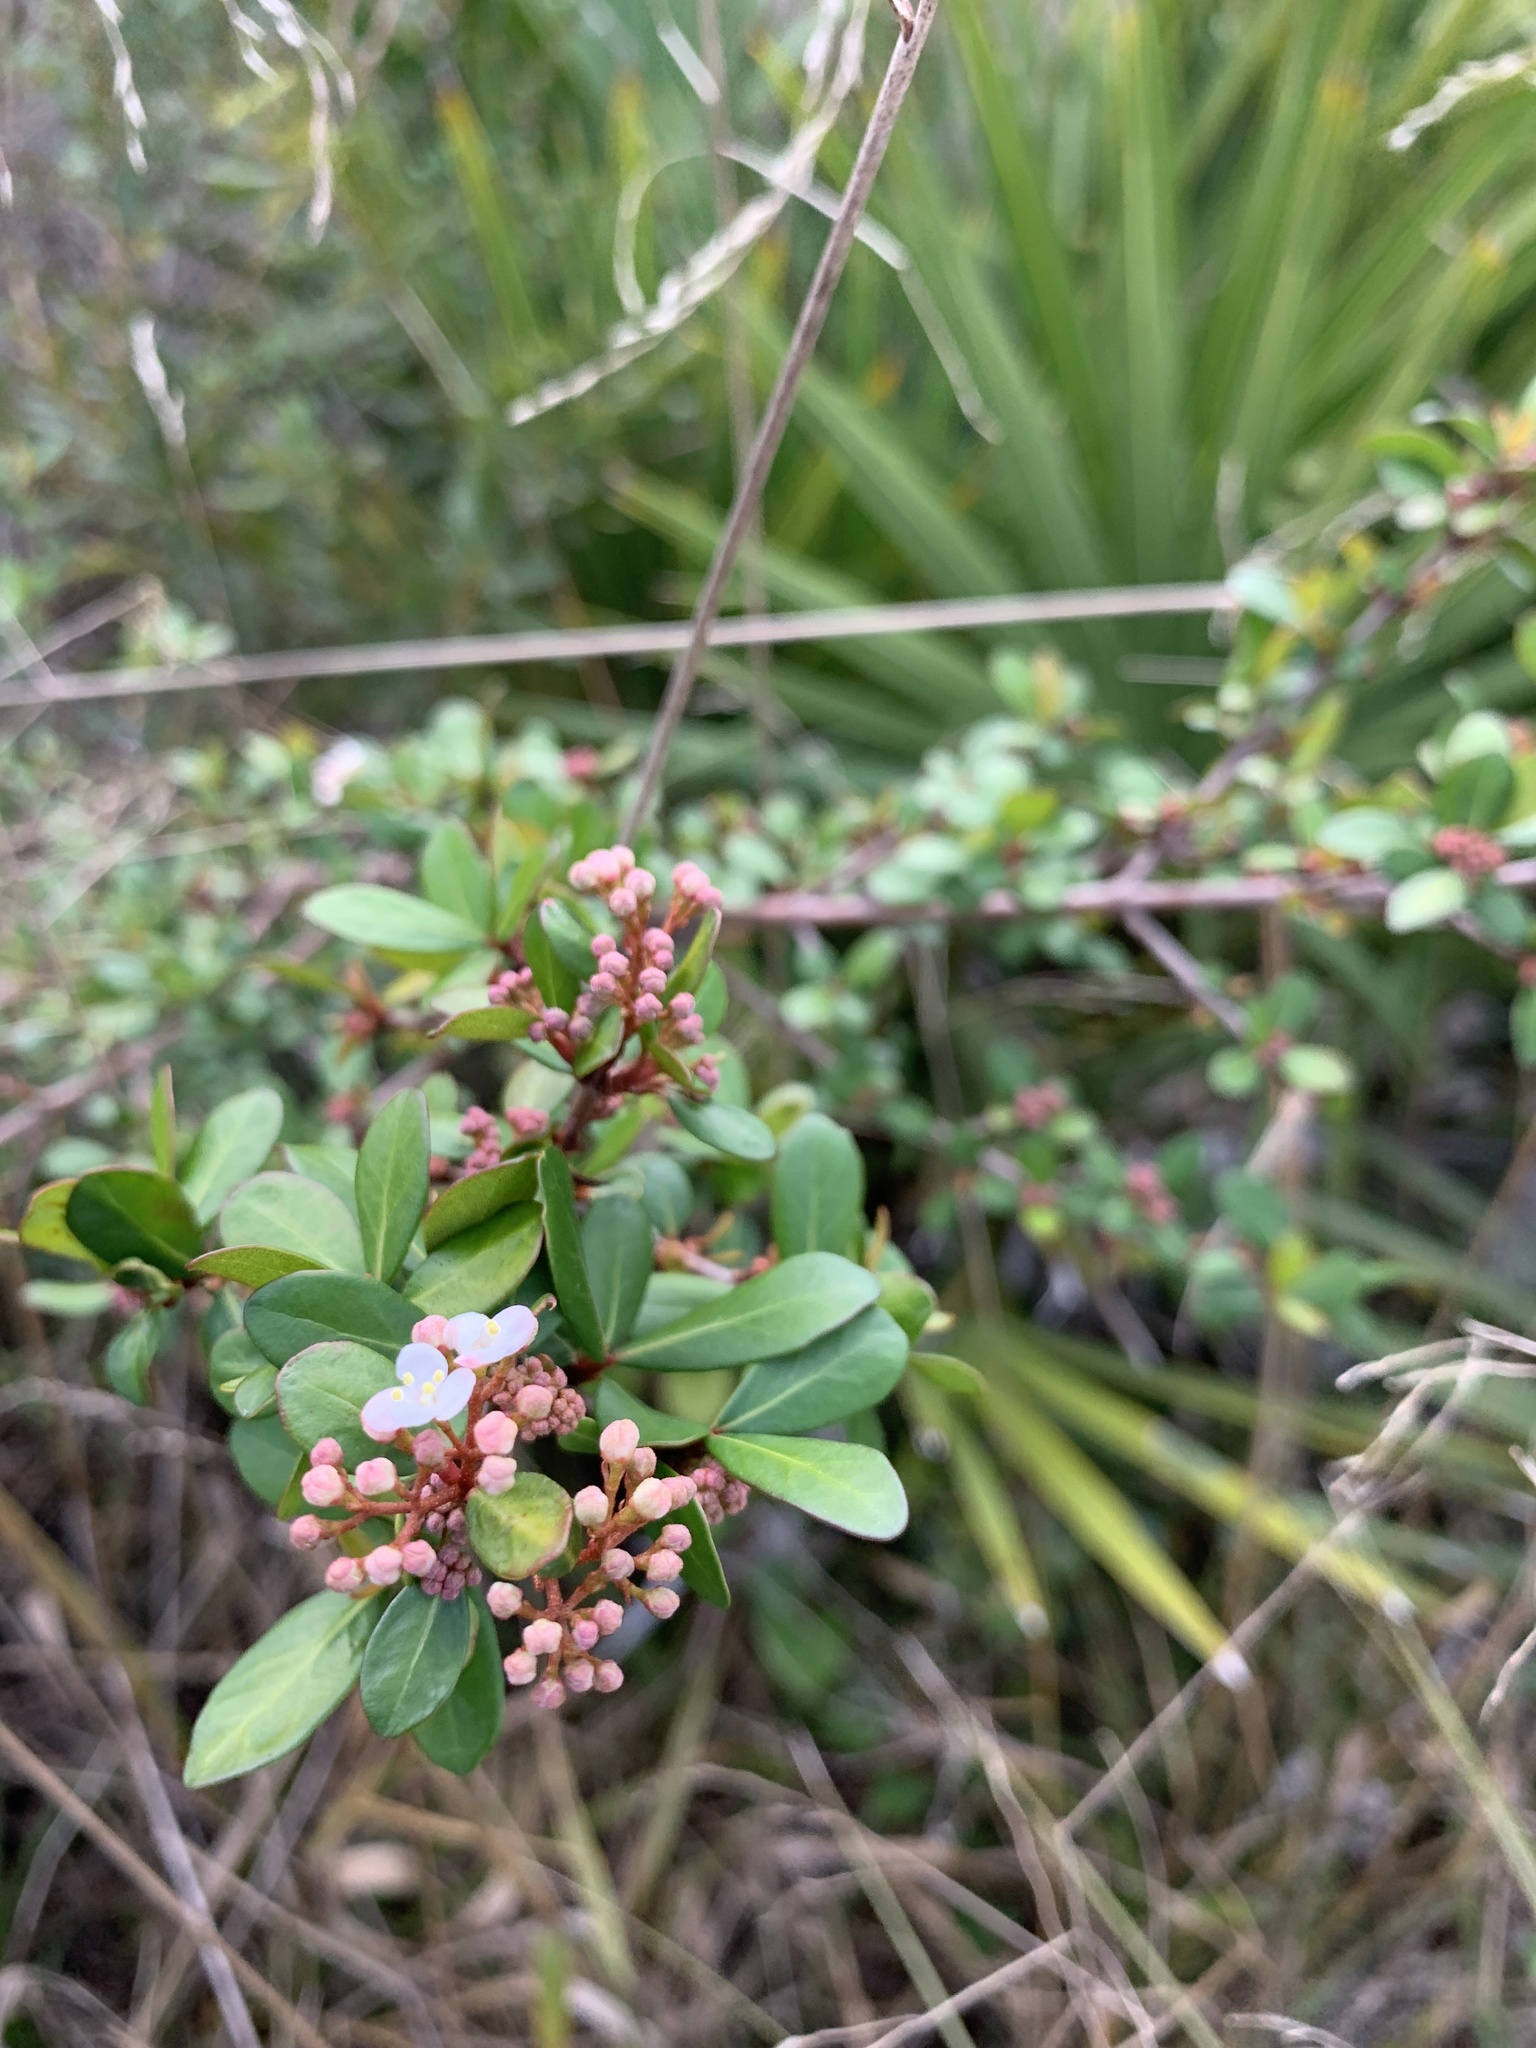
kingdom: Plantae
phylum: Tracheophyta
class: Magnoliopsida
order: Dipsacales
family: Viburnaceae
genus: Viburnum
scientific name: Viburnum obovatum
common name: Walter's viburnum
